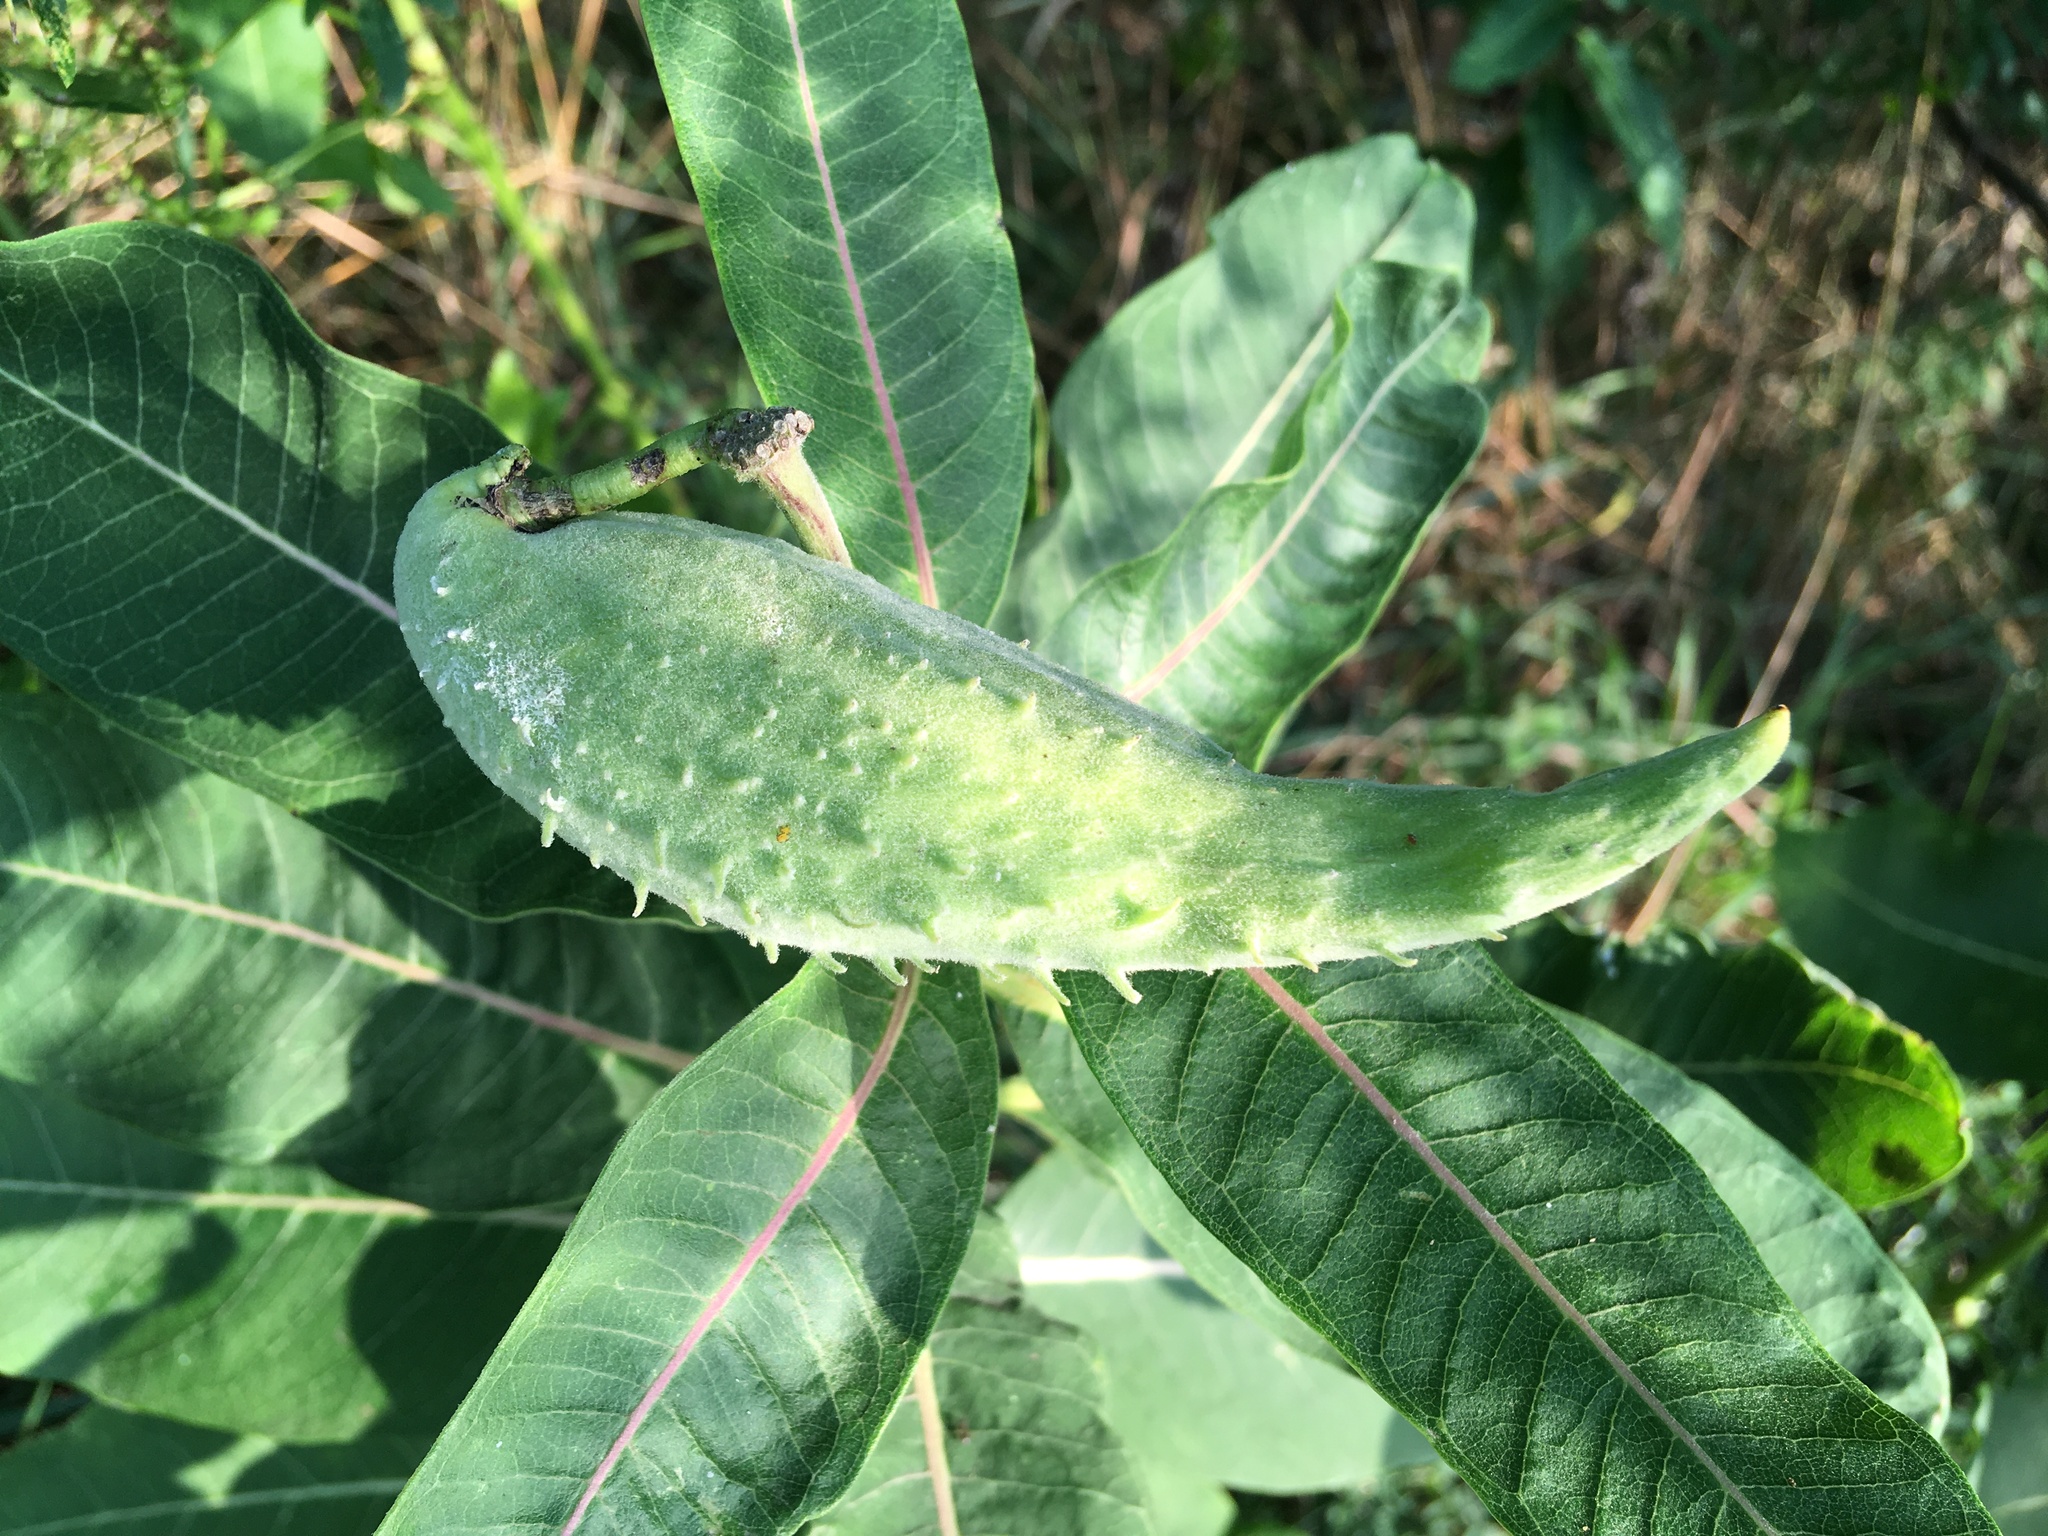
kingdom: Plantae
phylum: Tracheophyta
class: Magnoliopsida
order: Gentianales
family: Apocynaceae
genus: Asclepias
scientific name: Asclepias syriaca
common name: Common milkweed
